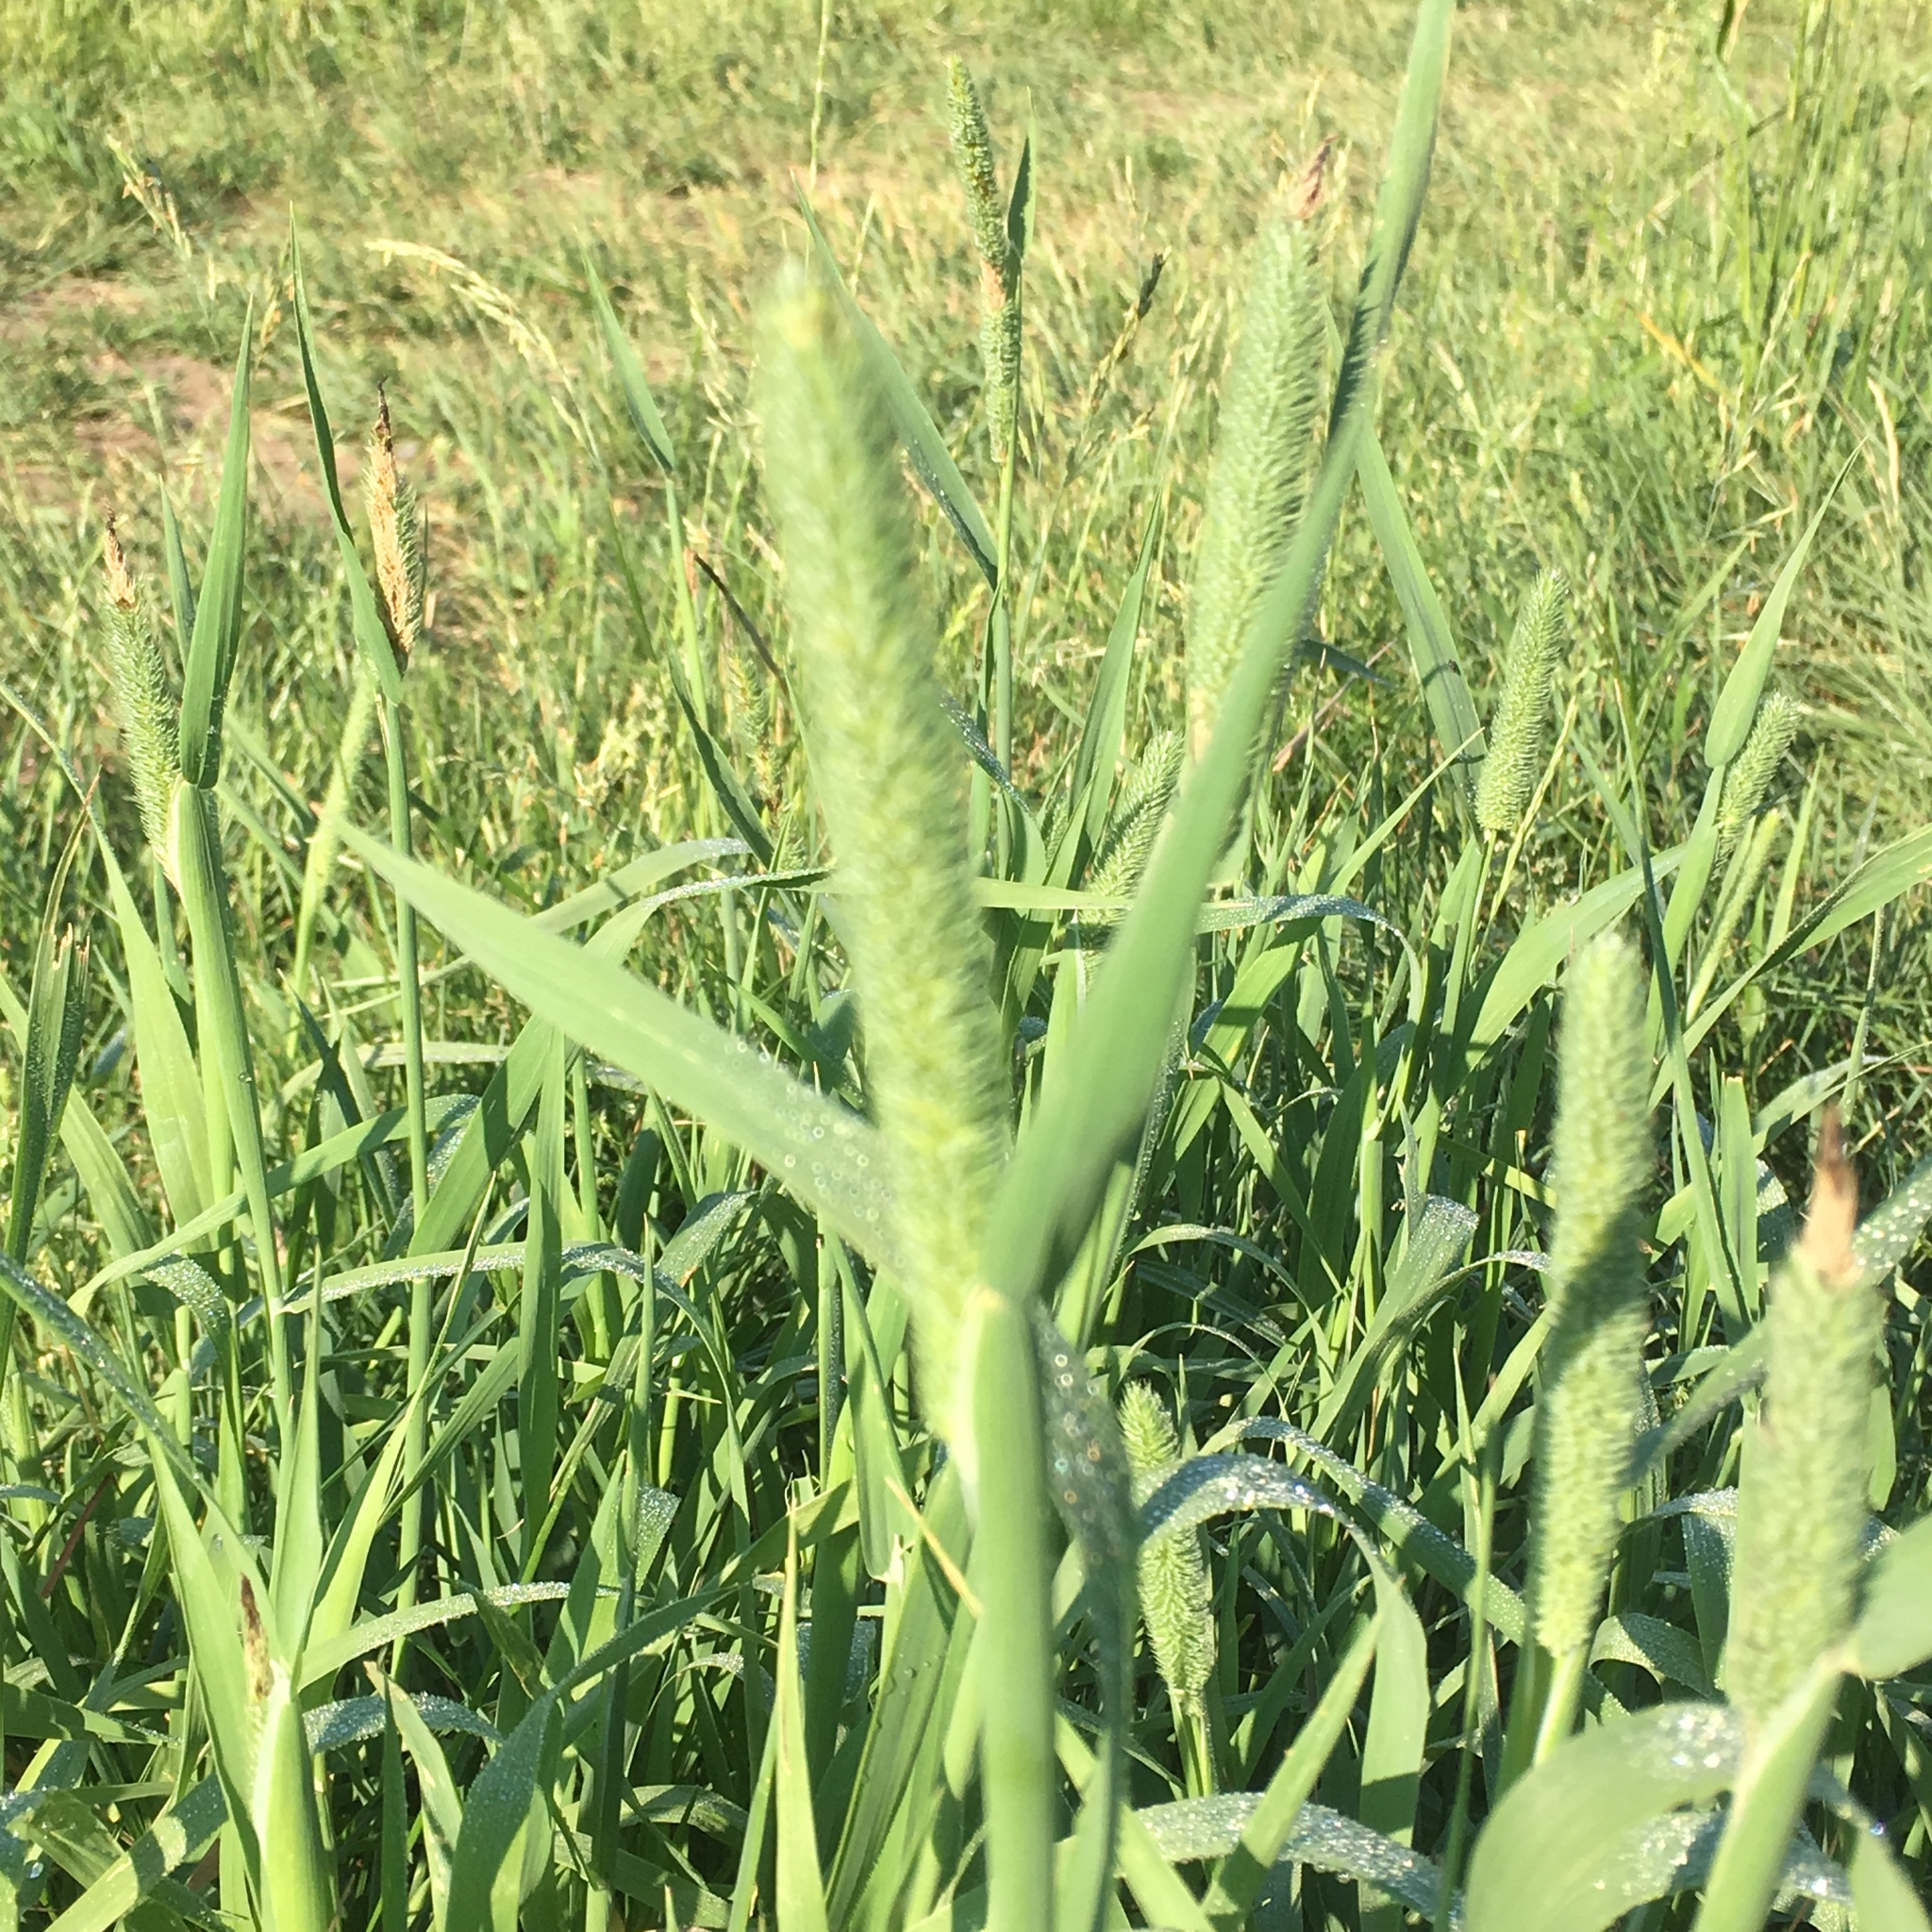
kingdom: Plantae
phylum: Tracheophyta
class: Liliopsida
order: Poales
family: Poaceae
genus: Phleum
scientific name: Phleum pratense
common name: Timothy grass
